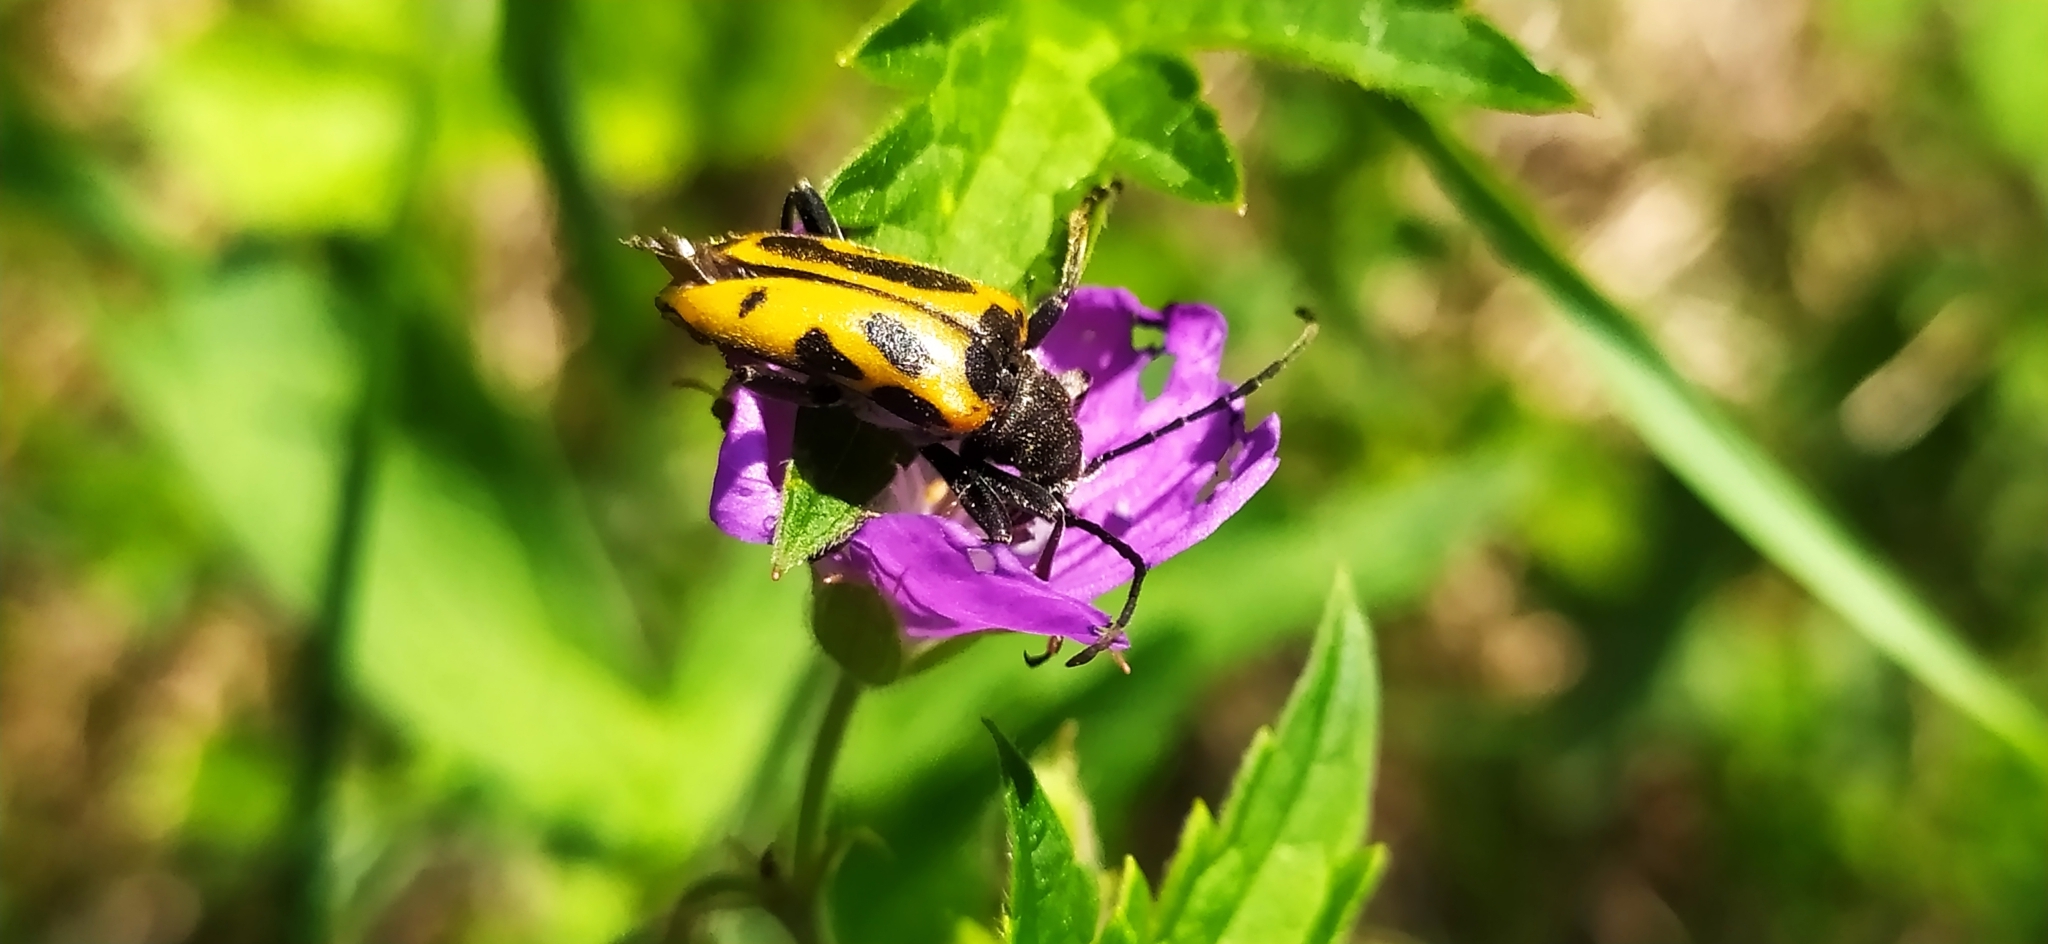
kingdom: Animalia
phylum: Arthropoda
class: Insecta
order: Coleoptera
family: Cerambycidae
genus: Brachyta
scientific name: Brachyta interrogationis
